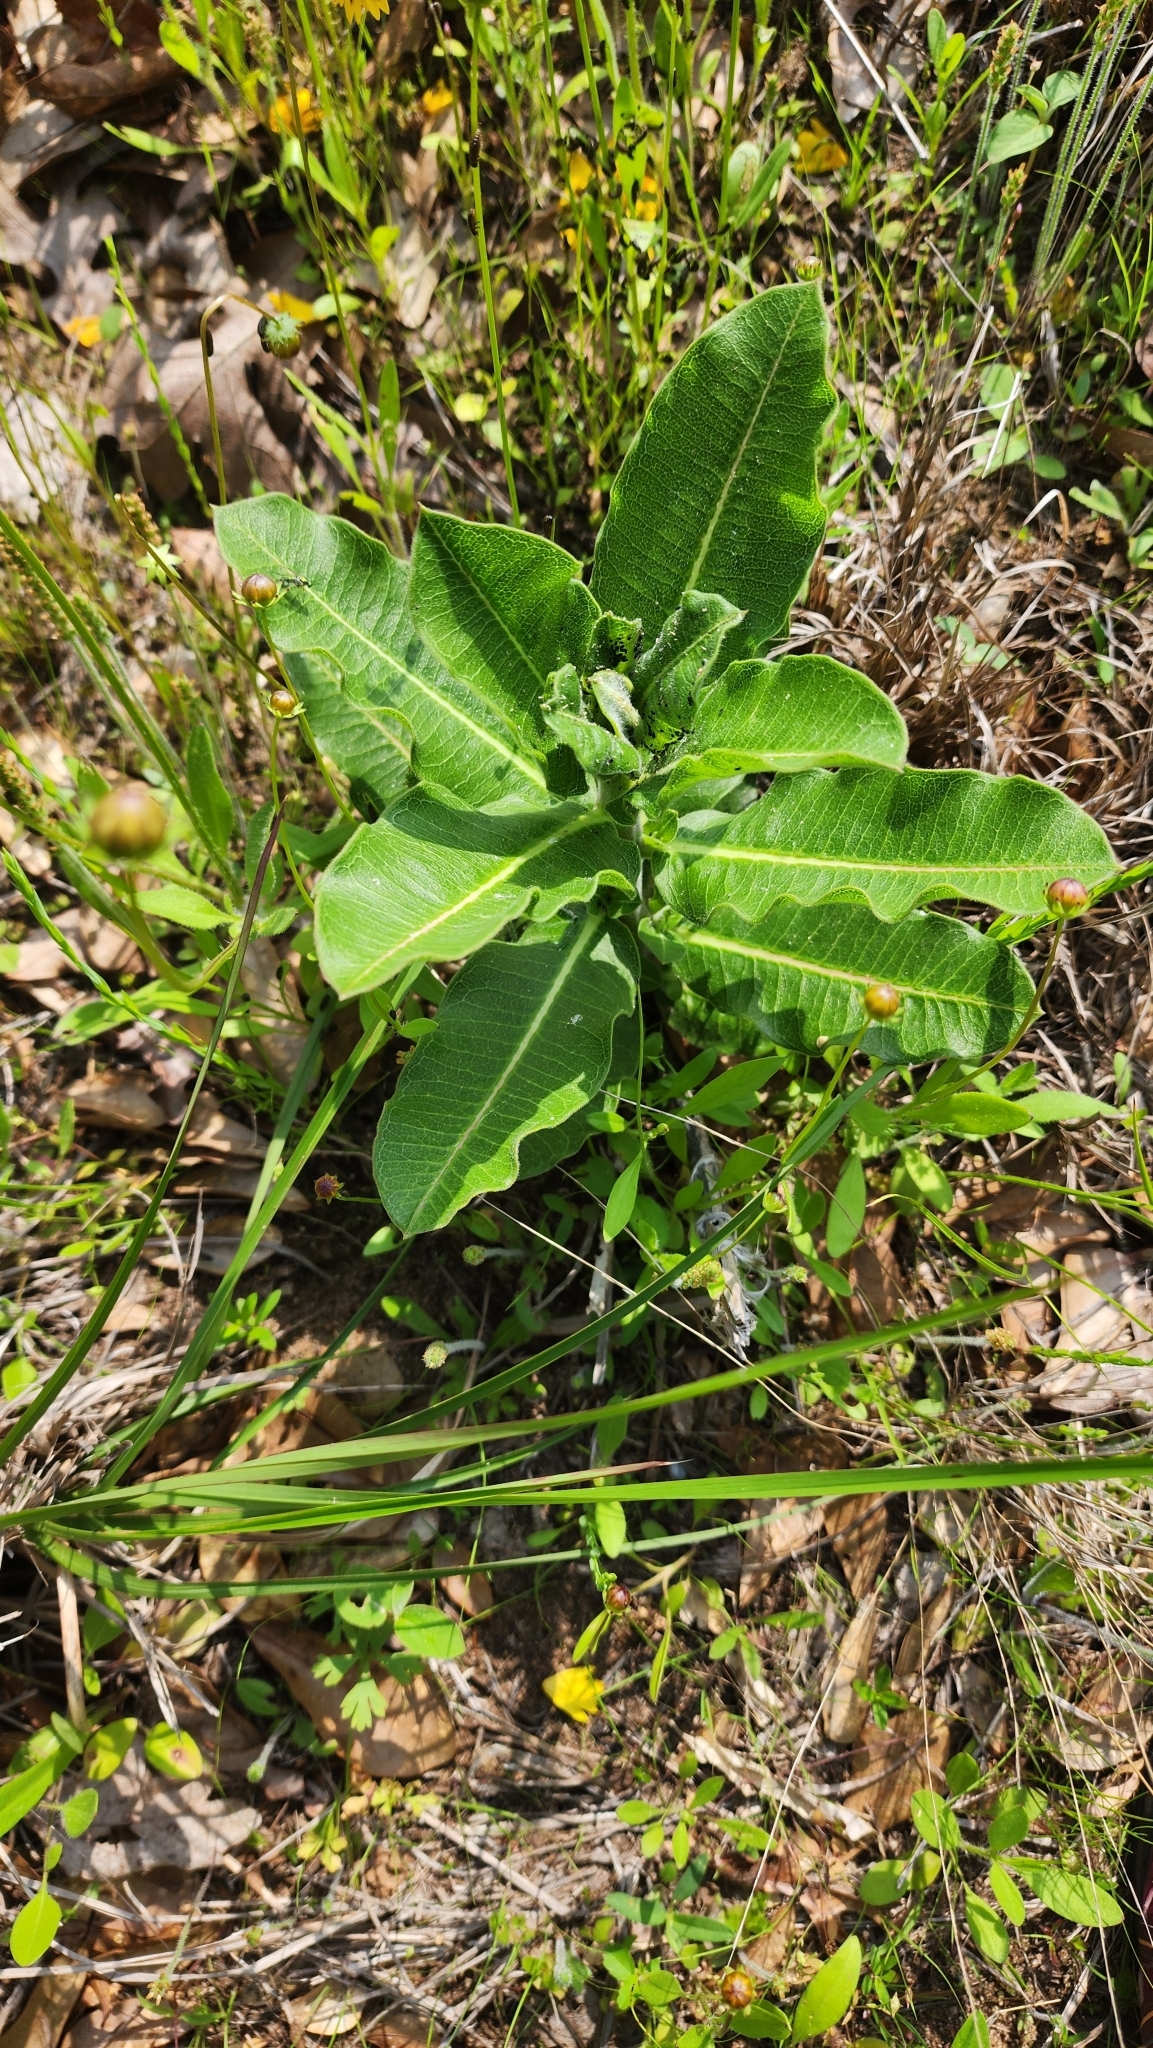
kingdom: Plantae
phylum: Tracheophyta
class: Magnoliopsida
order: Gentianales
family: Apocynaceae
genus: Asclepias
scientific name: Asclepias obovata
